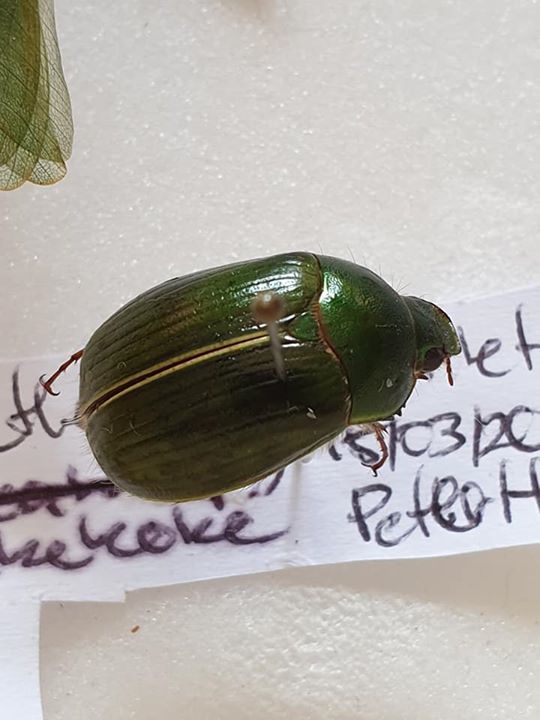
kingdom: Animalia
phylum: Arthropoda
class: Insecta
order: Coleoptera
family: Scarabaeidae
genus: Stethaspis
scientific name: Stethaspis suturalis
